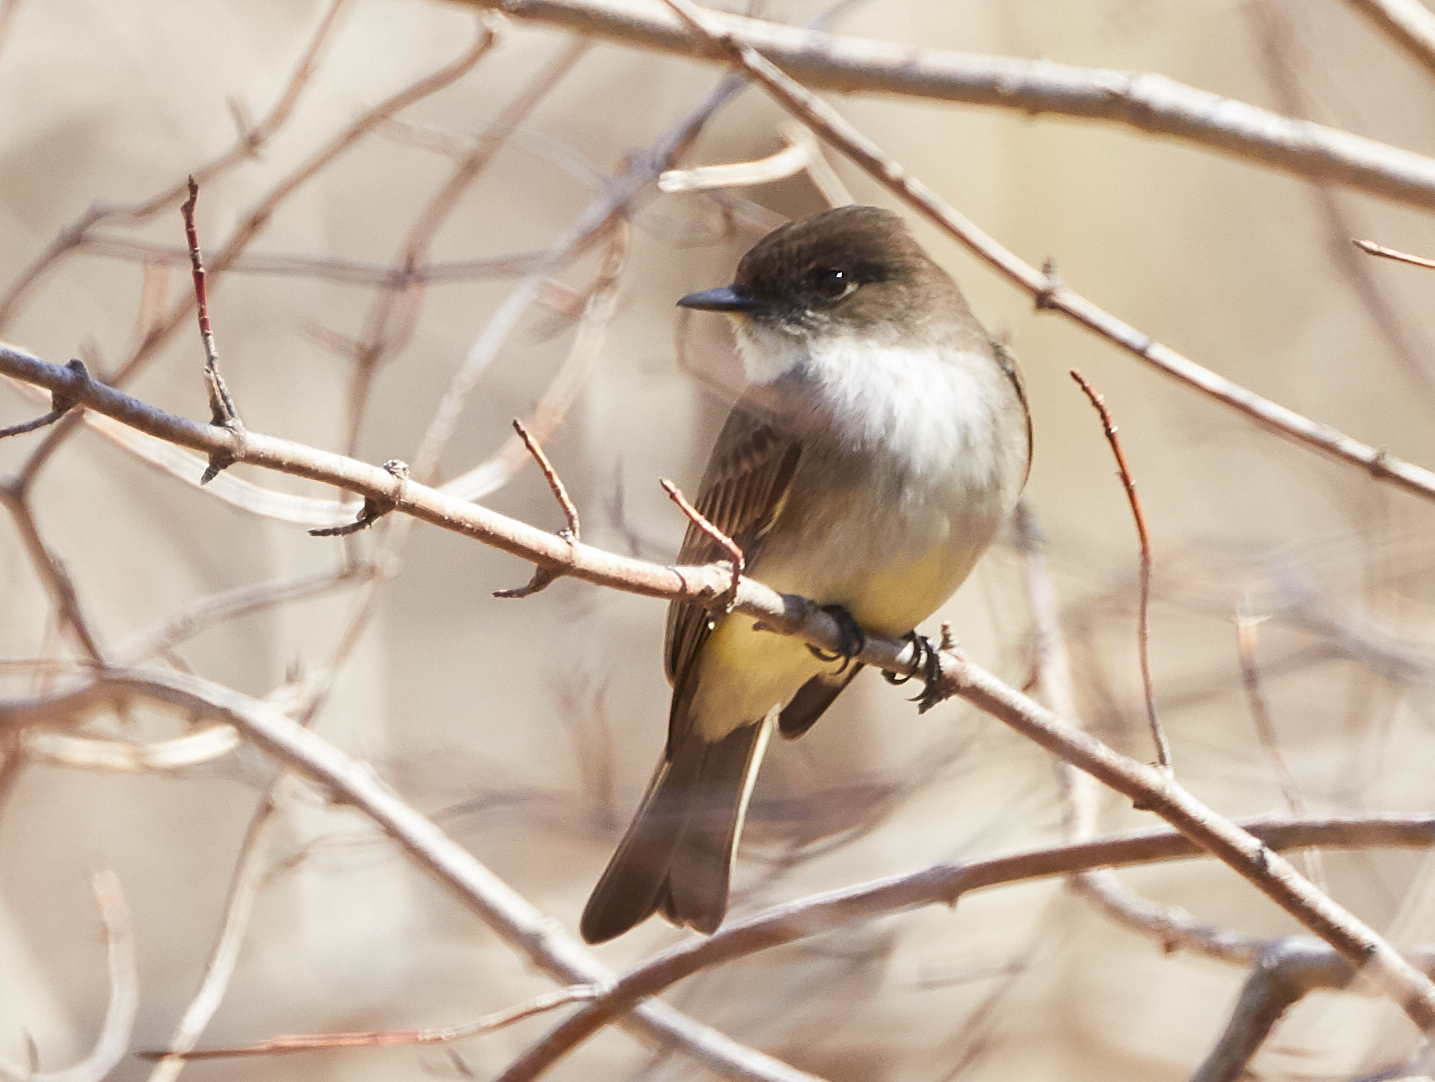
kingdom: Animalia
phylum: Chordata
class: Aves
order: Passeriformes
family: Tyrannidae
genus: Sayornis
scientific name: Sayornis phoebe
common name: Eastern phoebe
